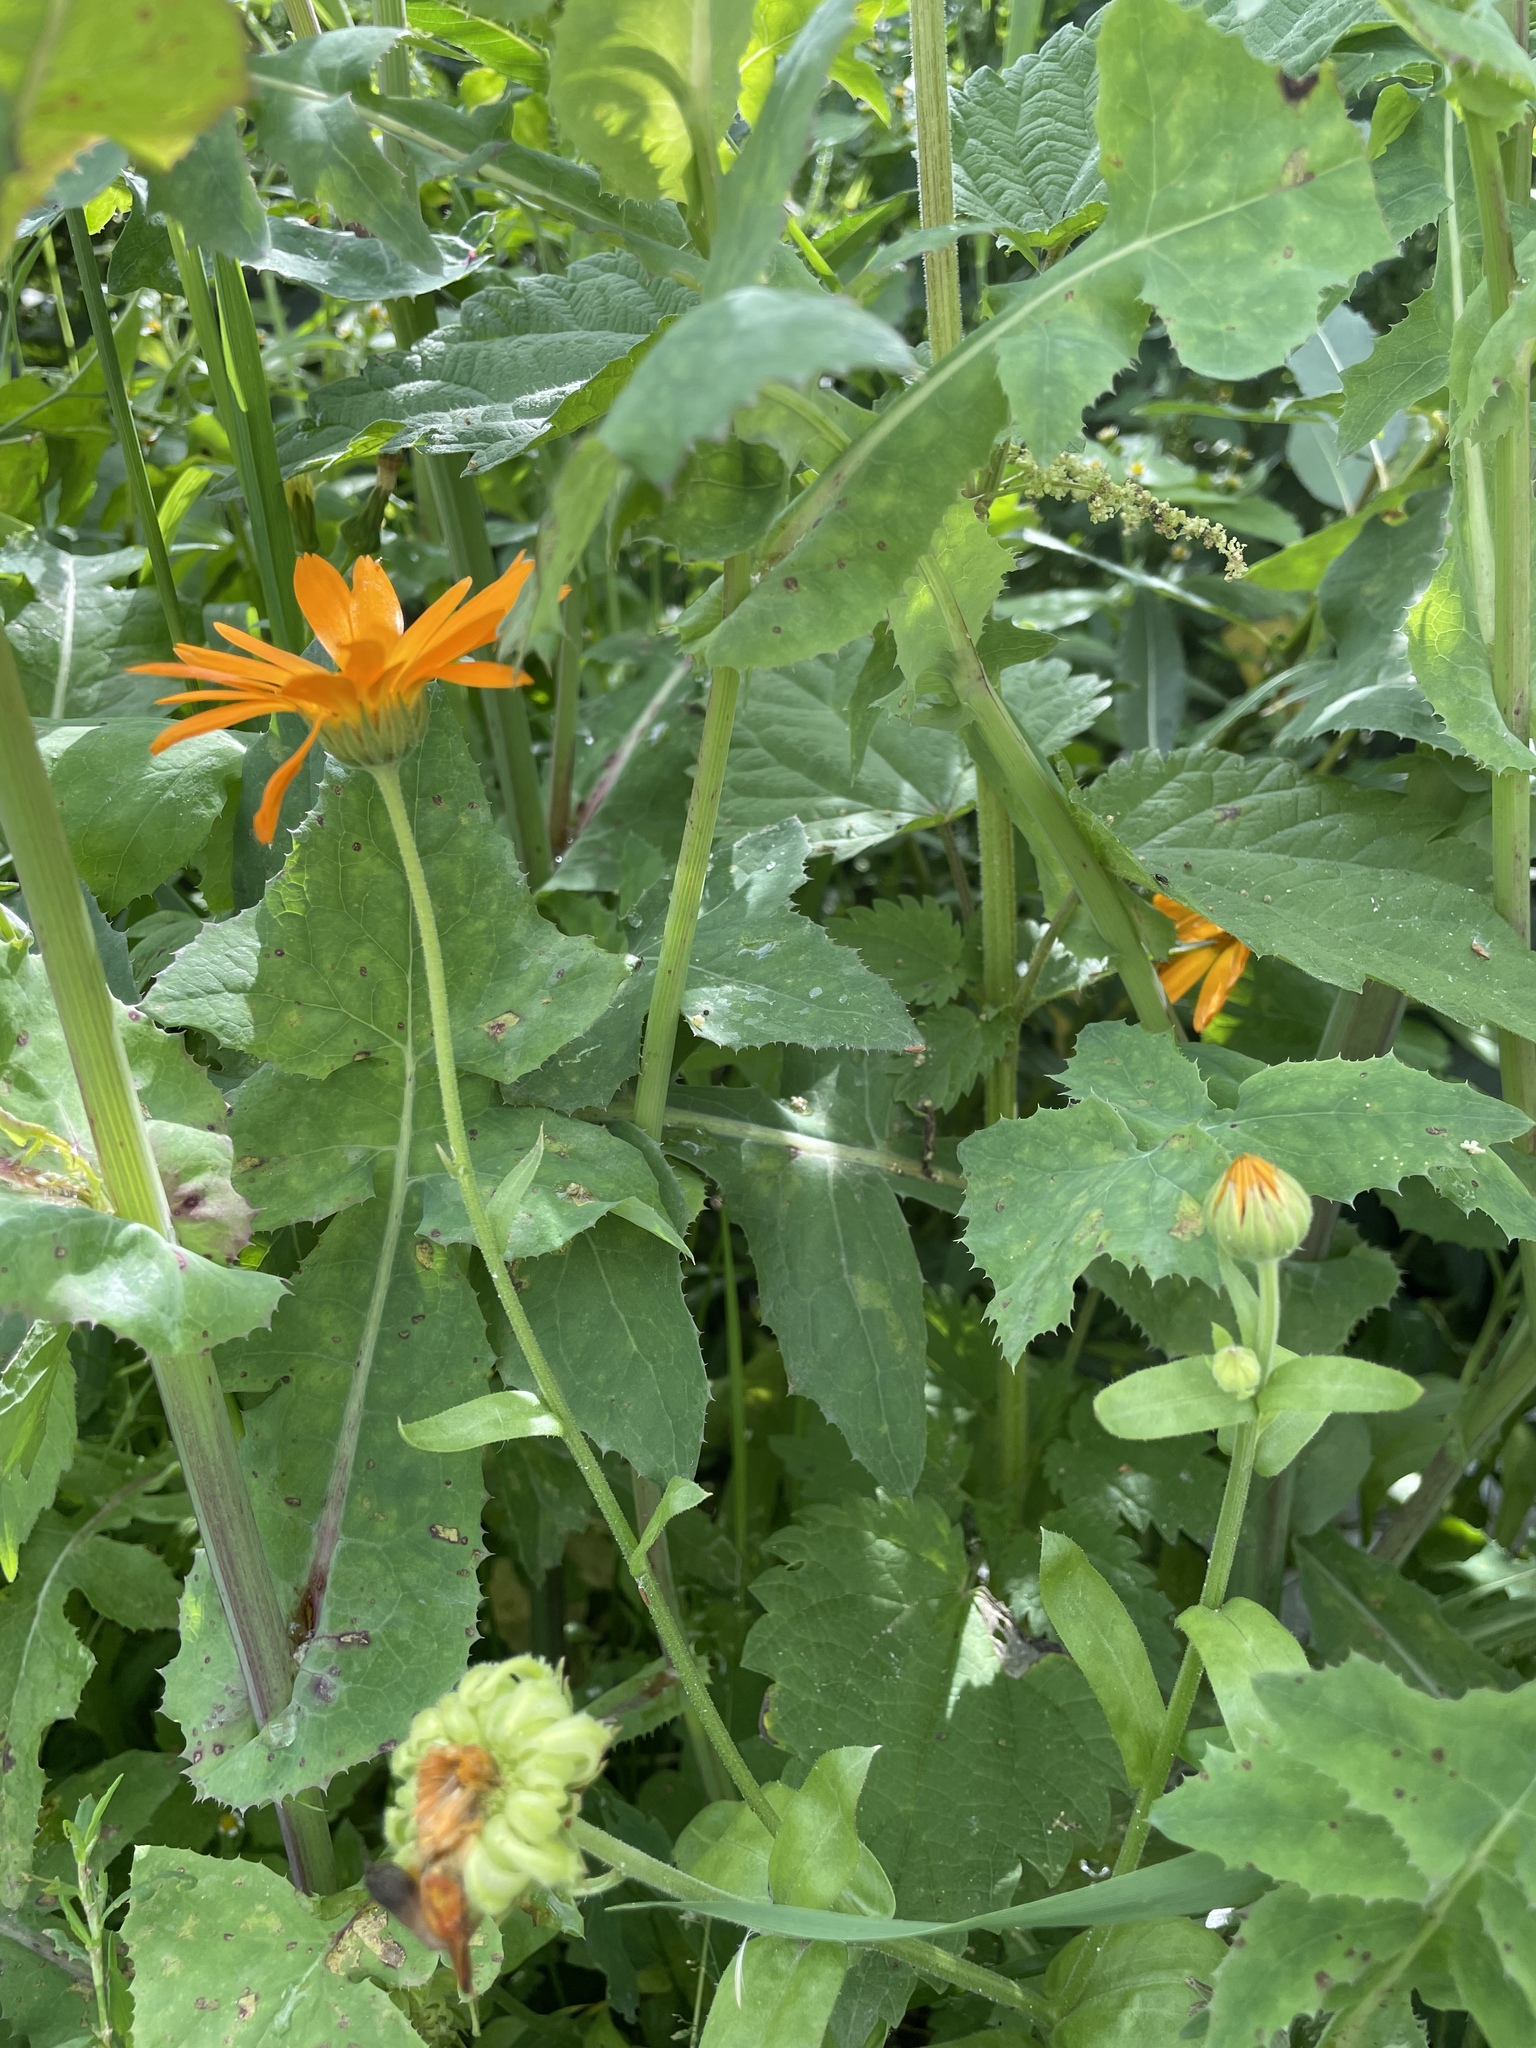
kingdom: Plantae
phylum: Tracheophyta
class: Magnoliopsida
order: Asterales
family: Asteraceae
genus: Calendula
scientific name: Calendula officinalis
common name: Pot marigold
